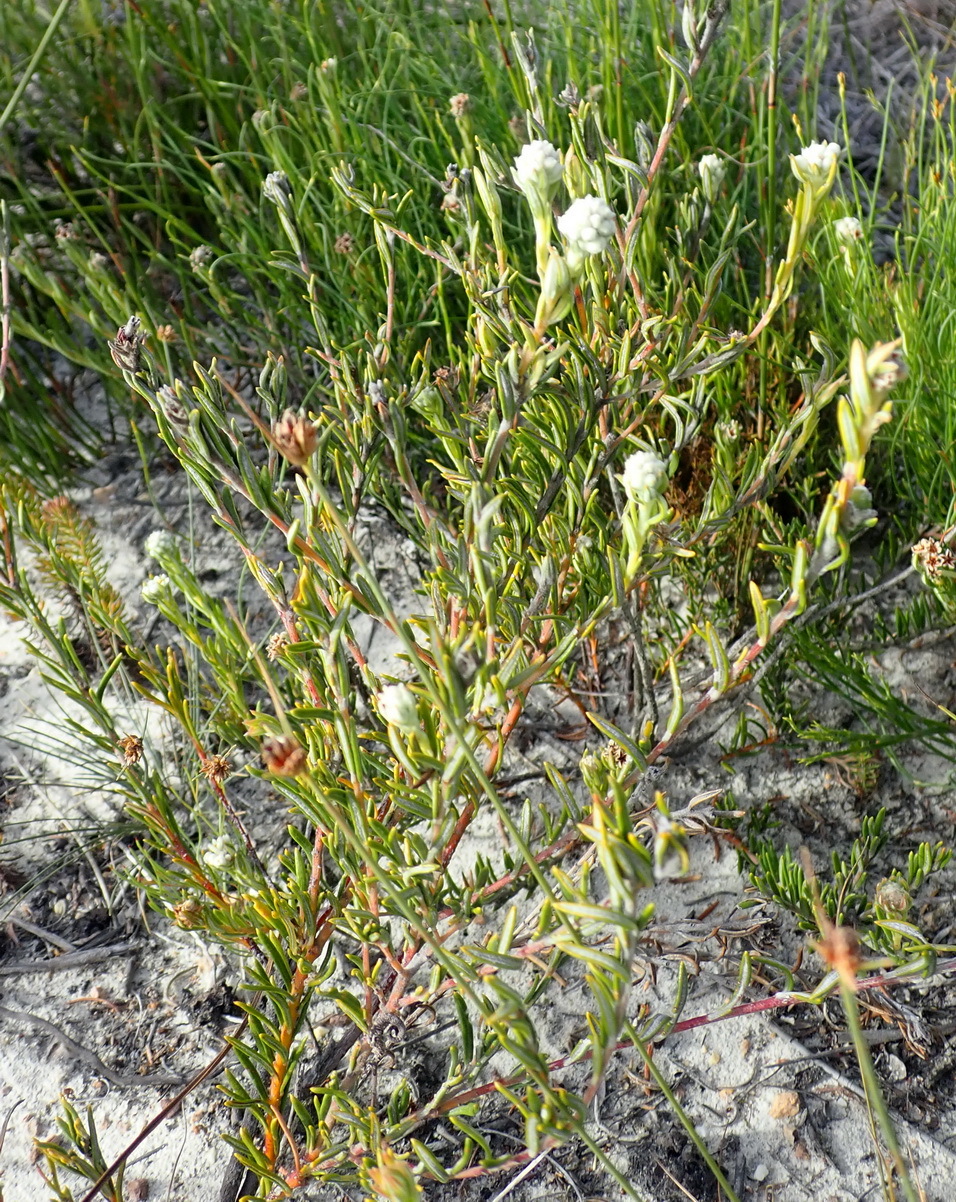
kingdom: Plantae
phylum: Tracheophyta
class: Magnoliopsida
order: Rosales
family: Rhamnaceae
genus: Phylica
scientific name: Phylica imberbis
